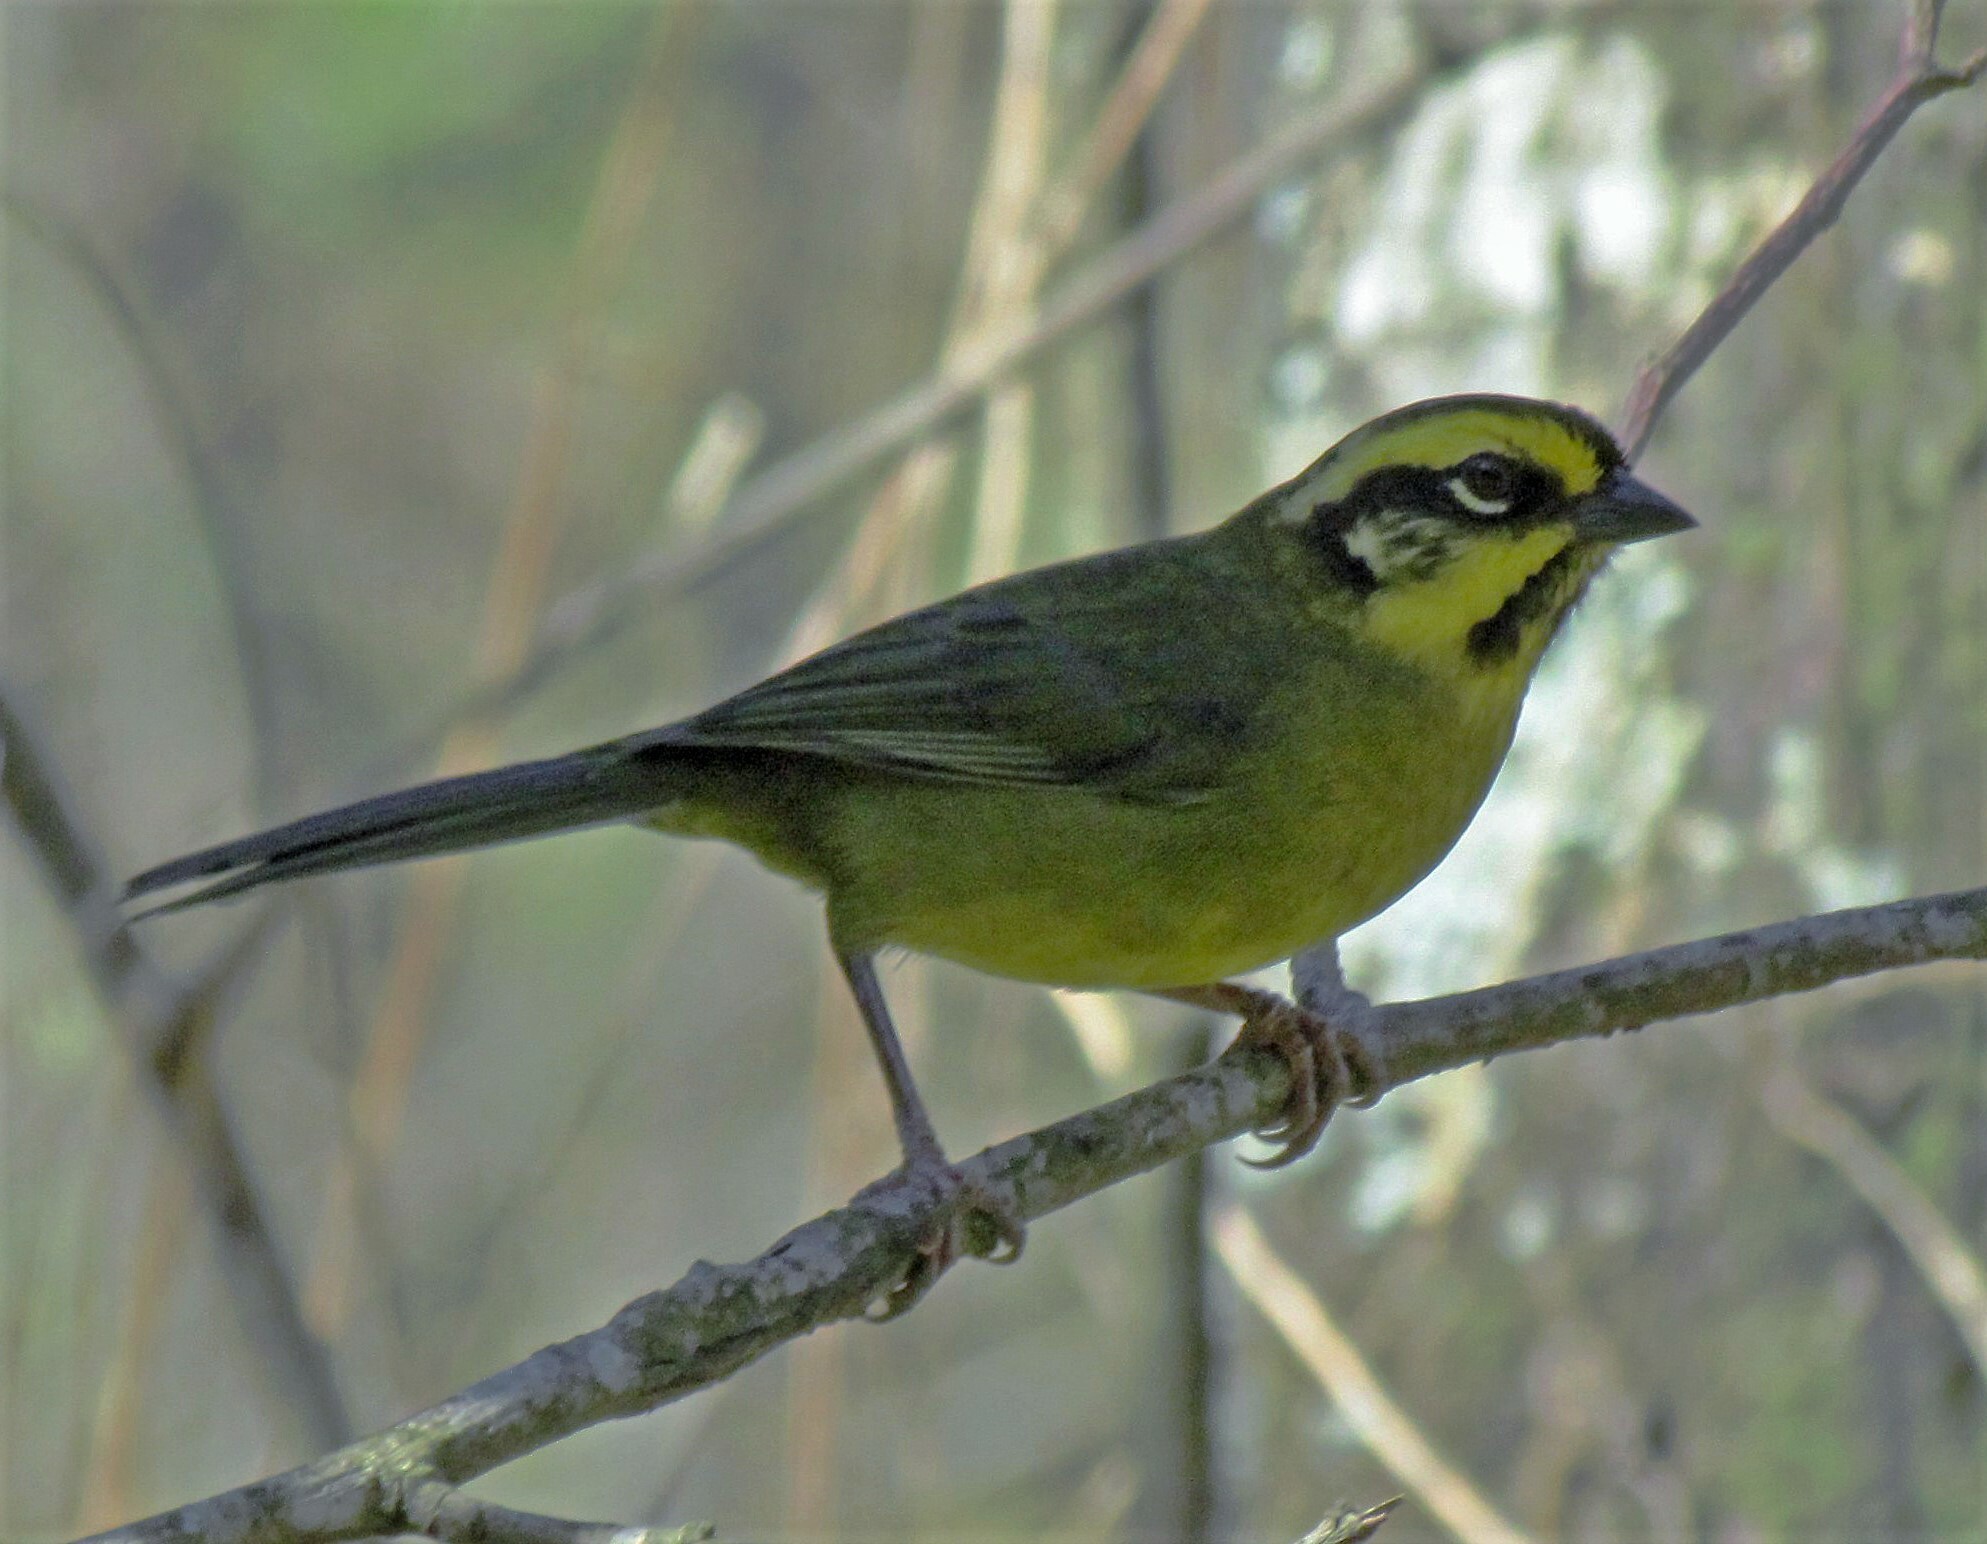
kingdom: Animalia
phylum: Chordata
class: Aves
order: Passeriformes
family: Passerellidae
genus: Atlapetes
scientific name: Atlapetes citrinellus
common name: Yellow-striped brushfinch
